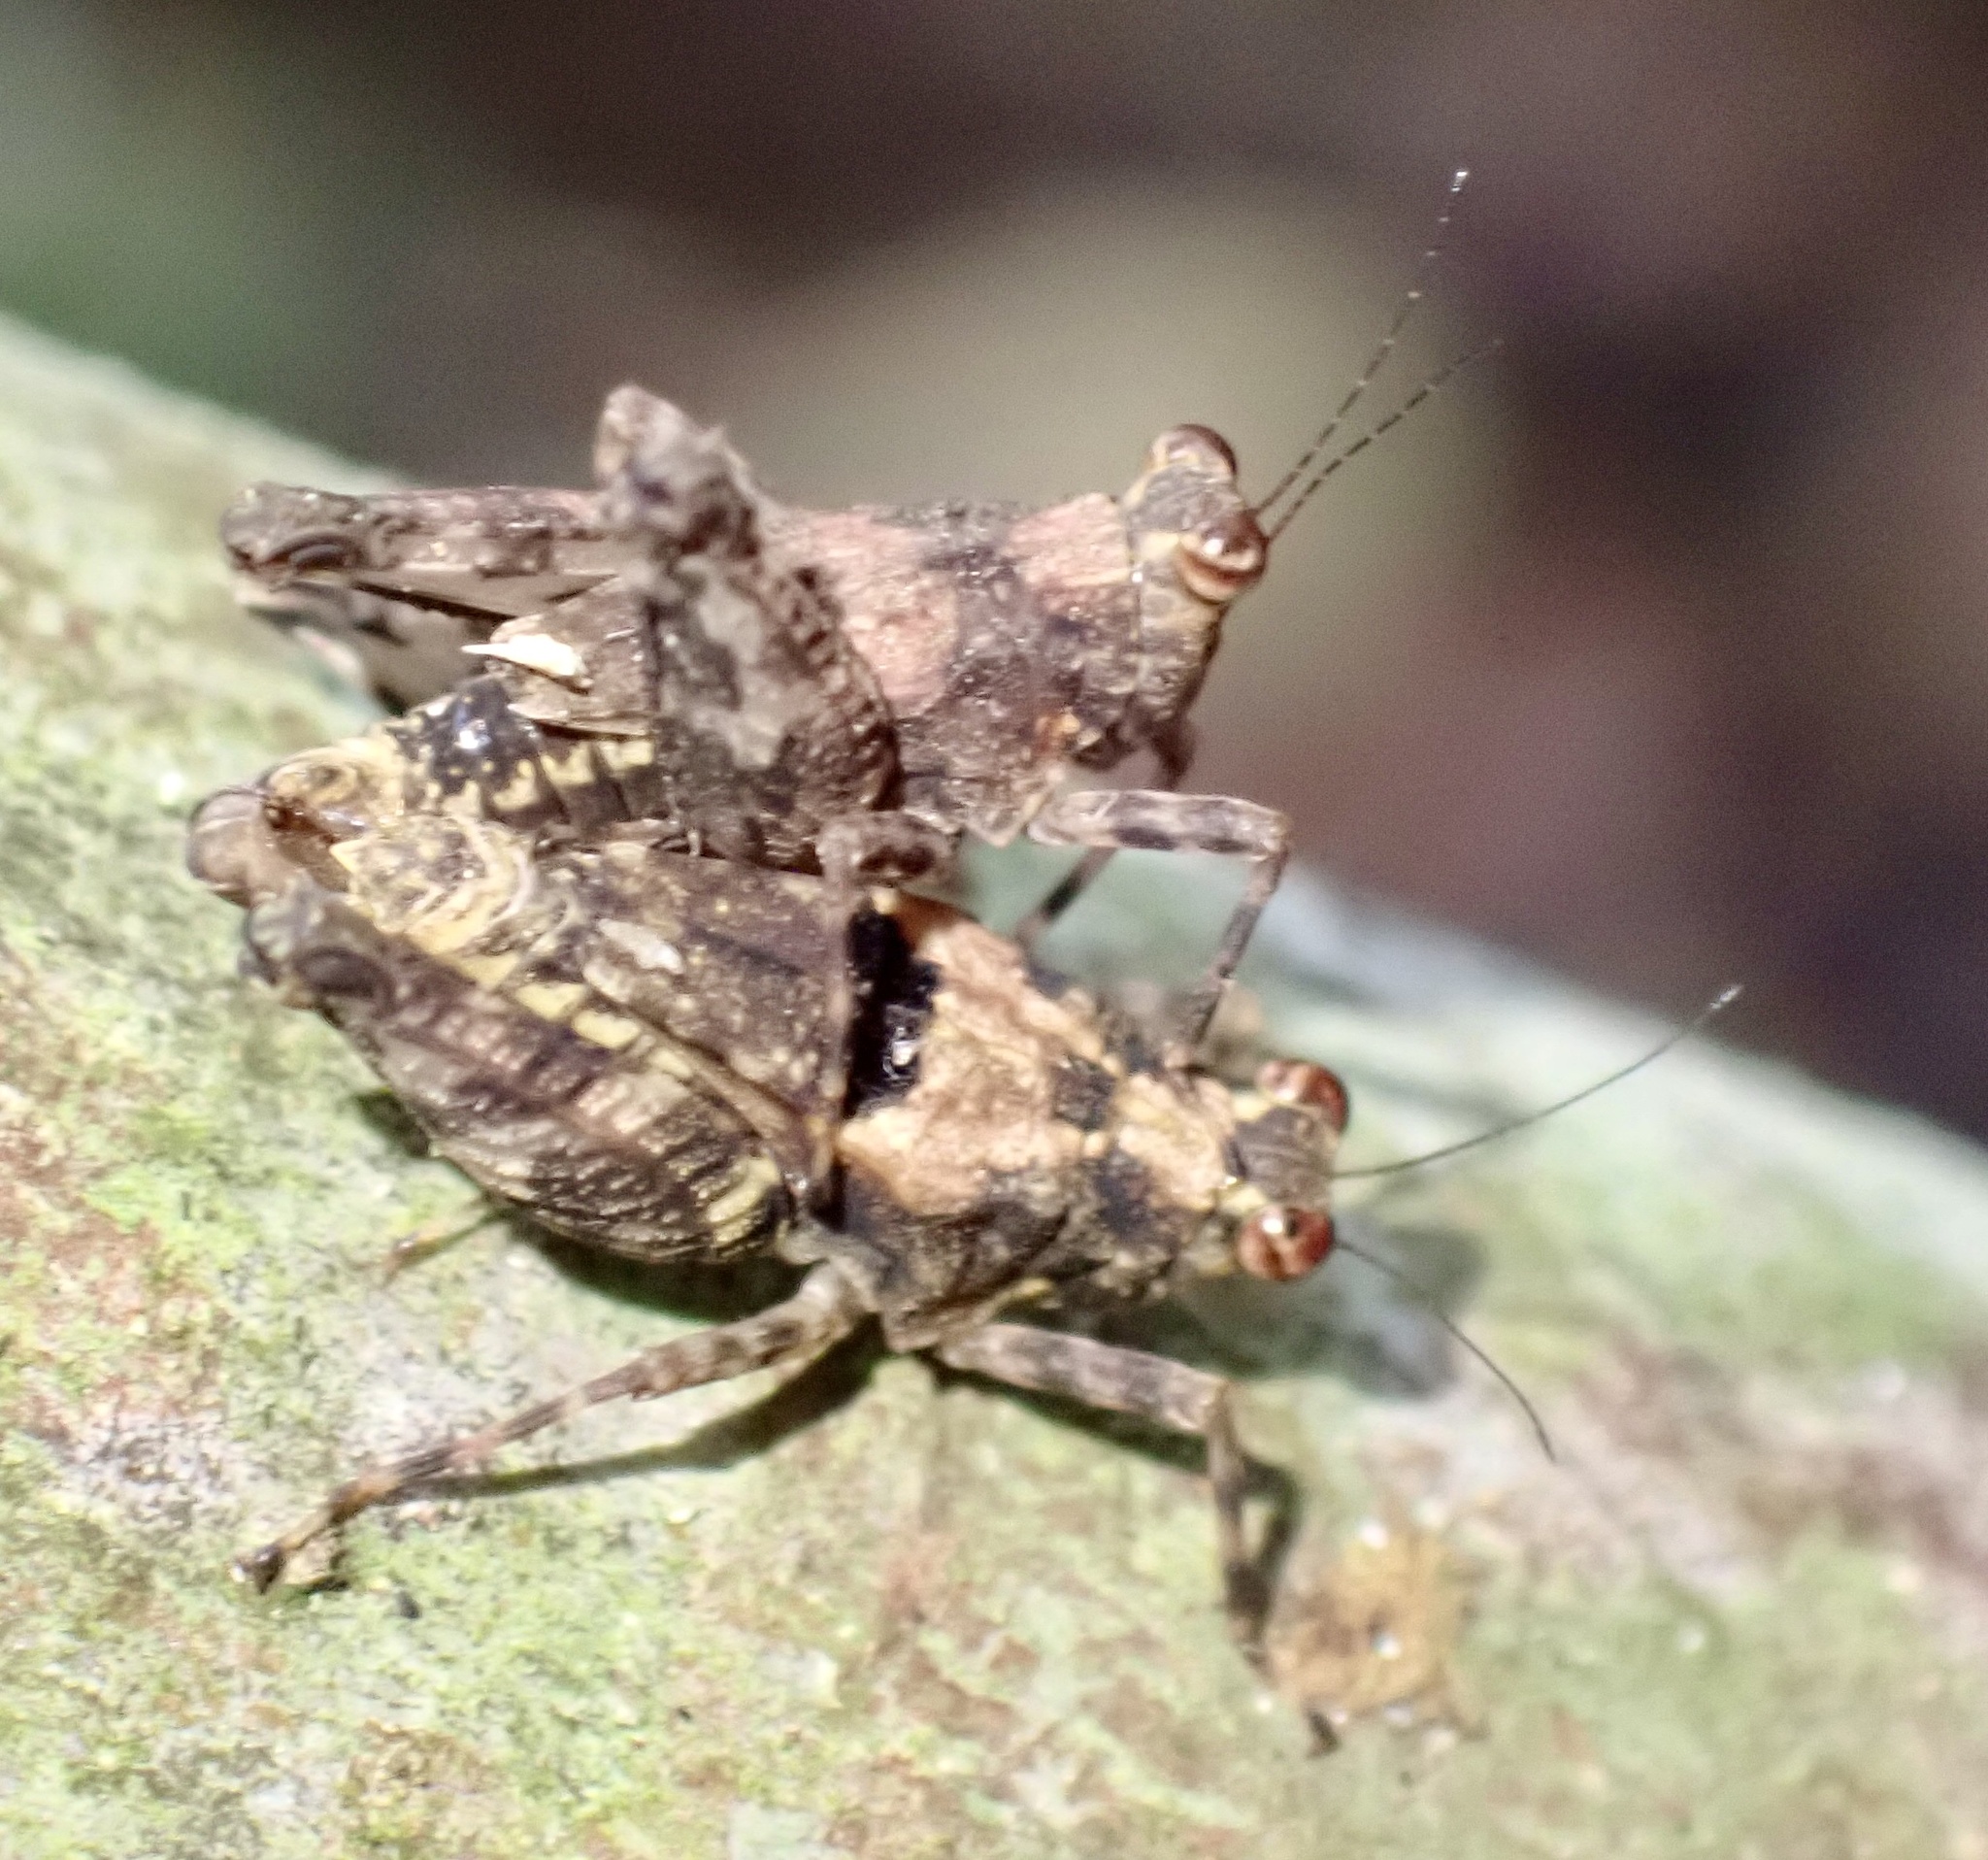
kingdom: Animalia
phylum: Arthropoda
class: Insecta
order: Orthoptera
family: Tetrigidae
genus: Amphinotulus
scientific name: Amphinotulus truncatus
